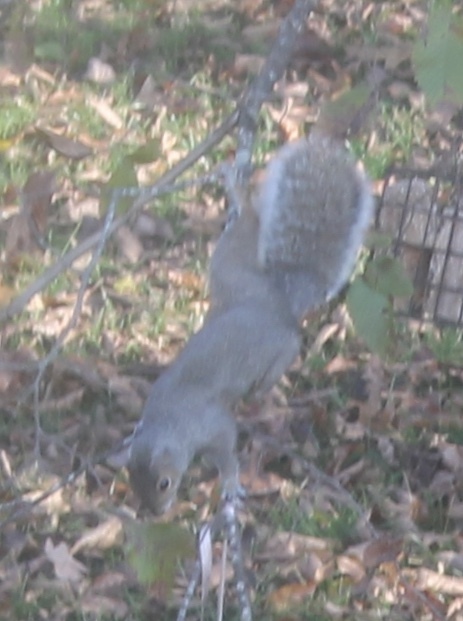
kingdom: Animalia
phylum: Chordata
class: Mammalia
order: Rodentia
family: Sciuridae
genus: Sciurus
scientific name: Sciurus carolinensis
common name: Eastern gray squirrel
